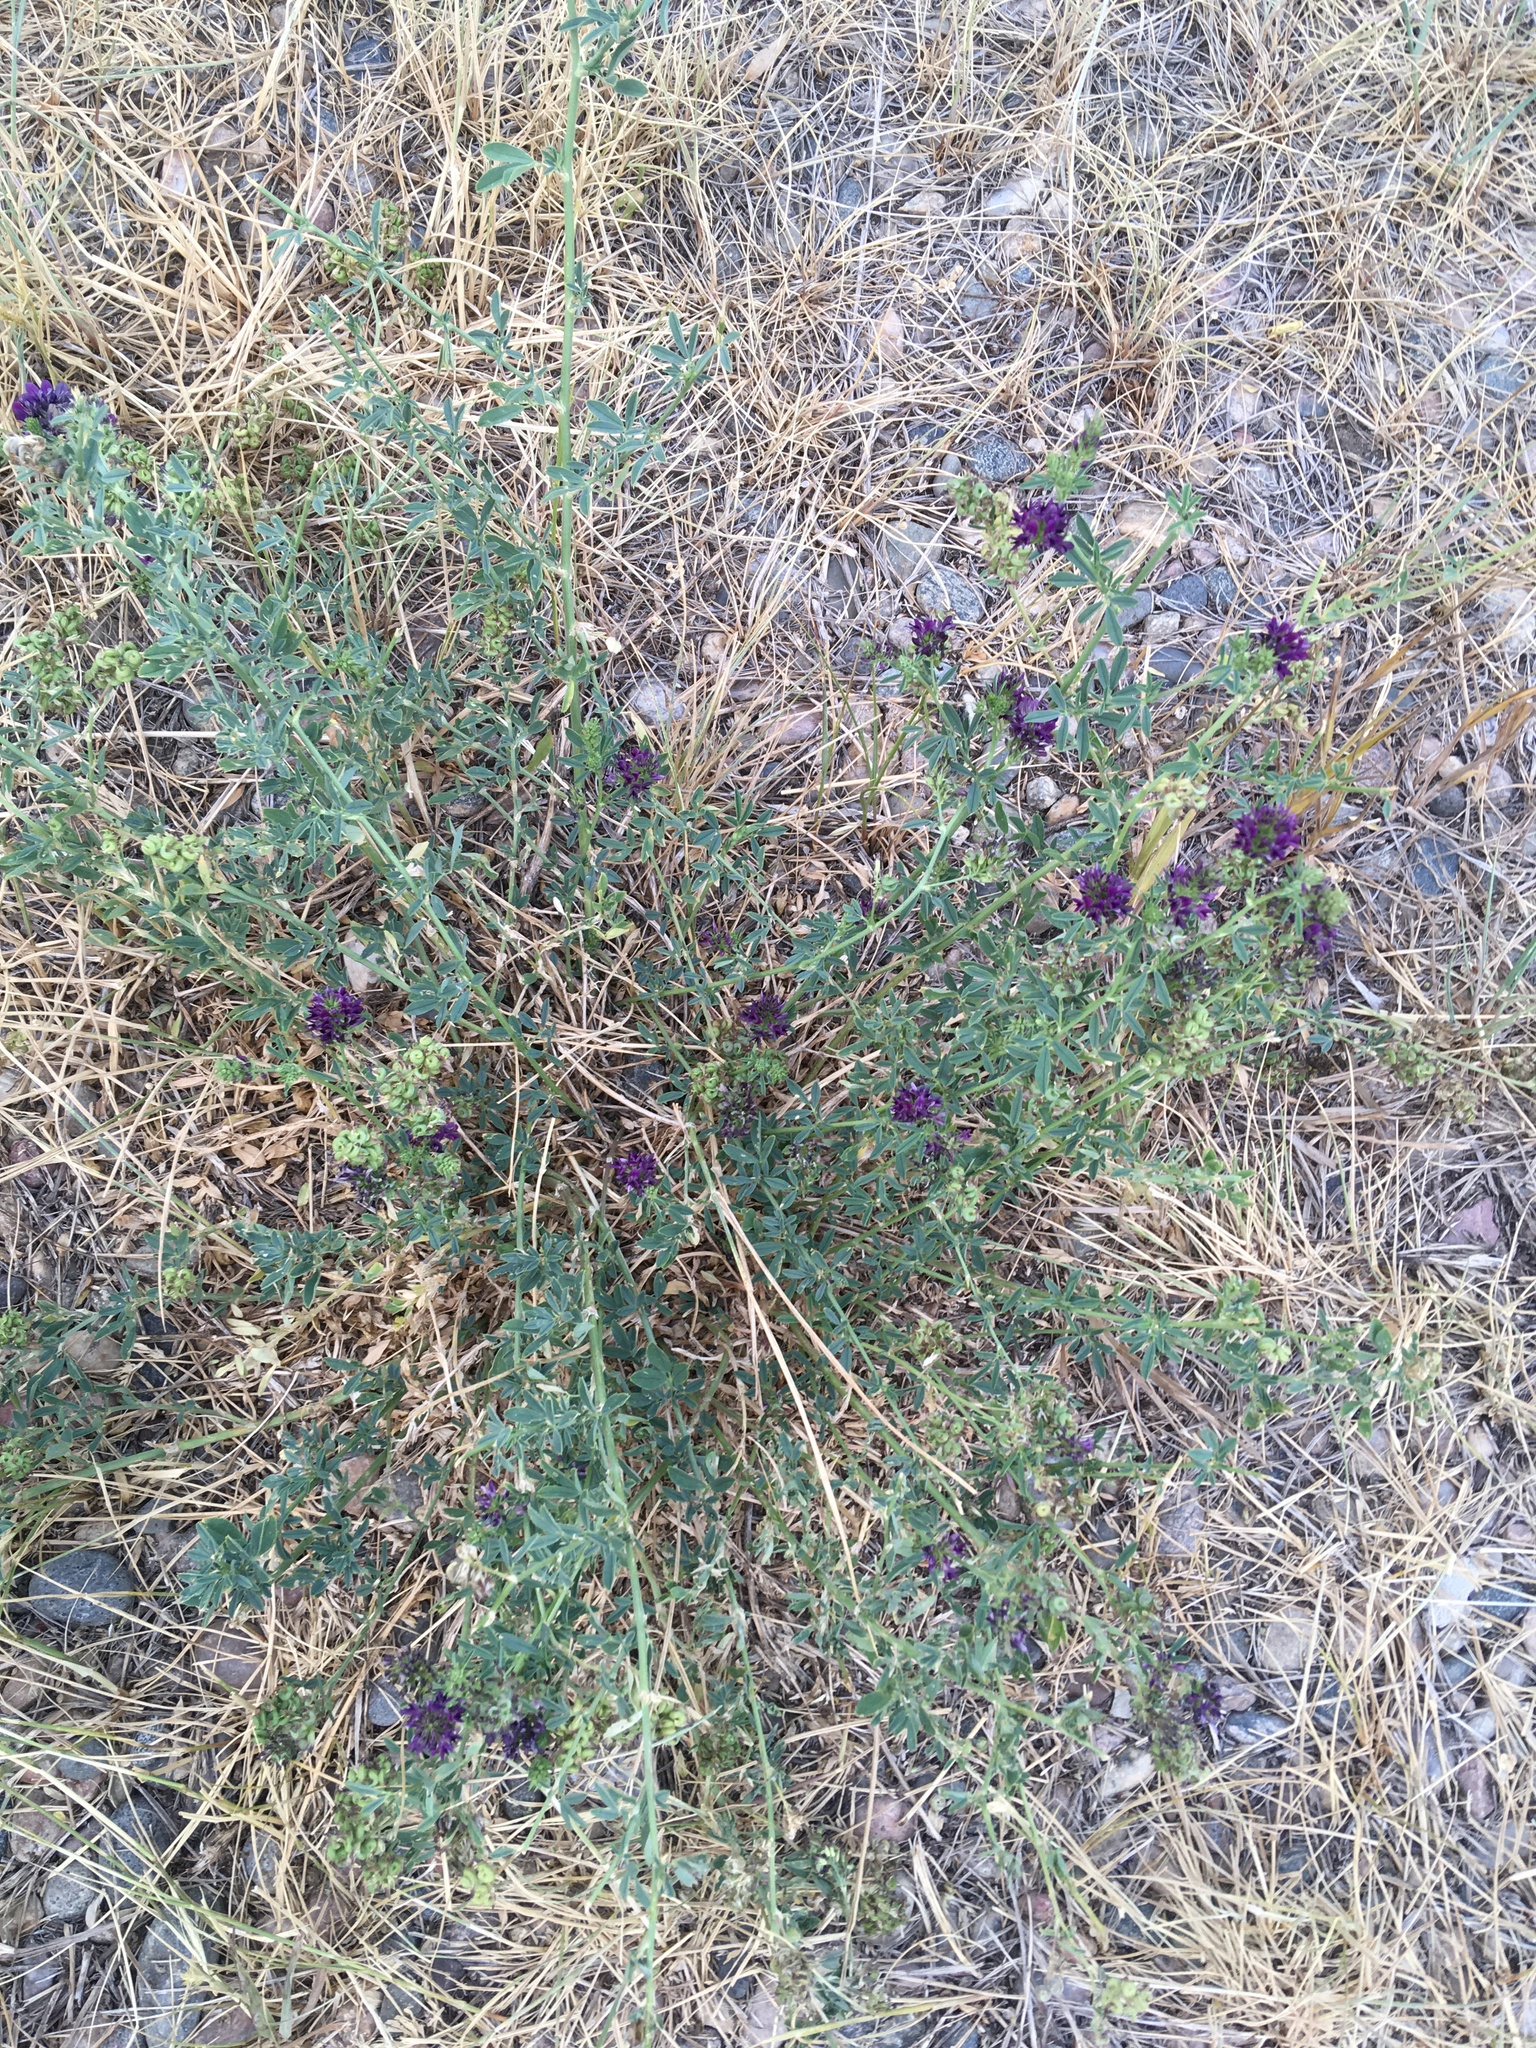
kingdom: Plantae
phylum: Tracheophyta
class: Magnoliopsida
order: Fabales
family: Fabaceae
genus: Medicago
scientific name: Medicago sativa
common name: Alfalfa
